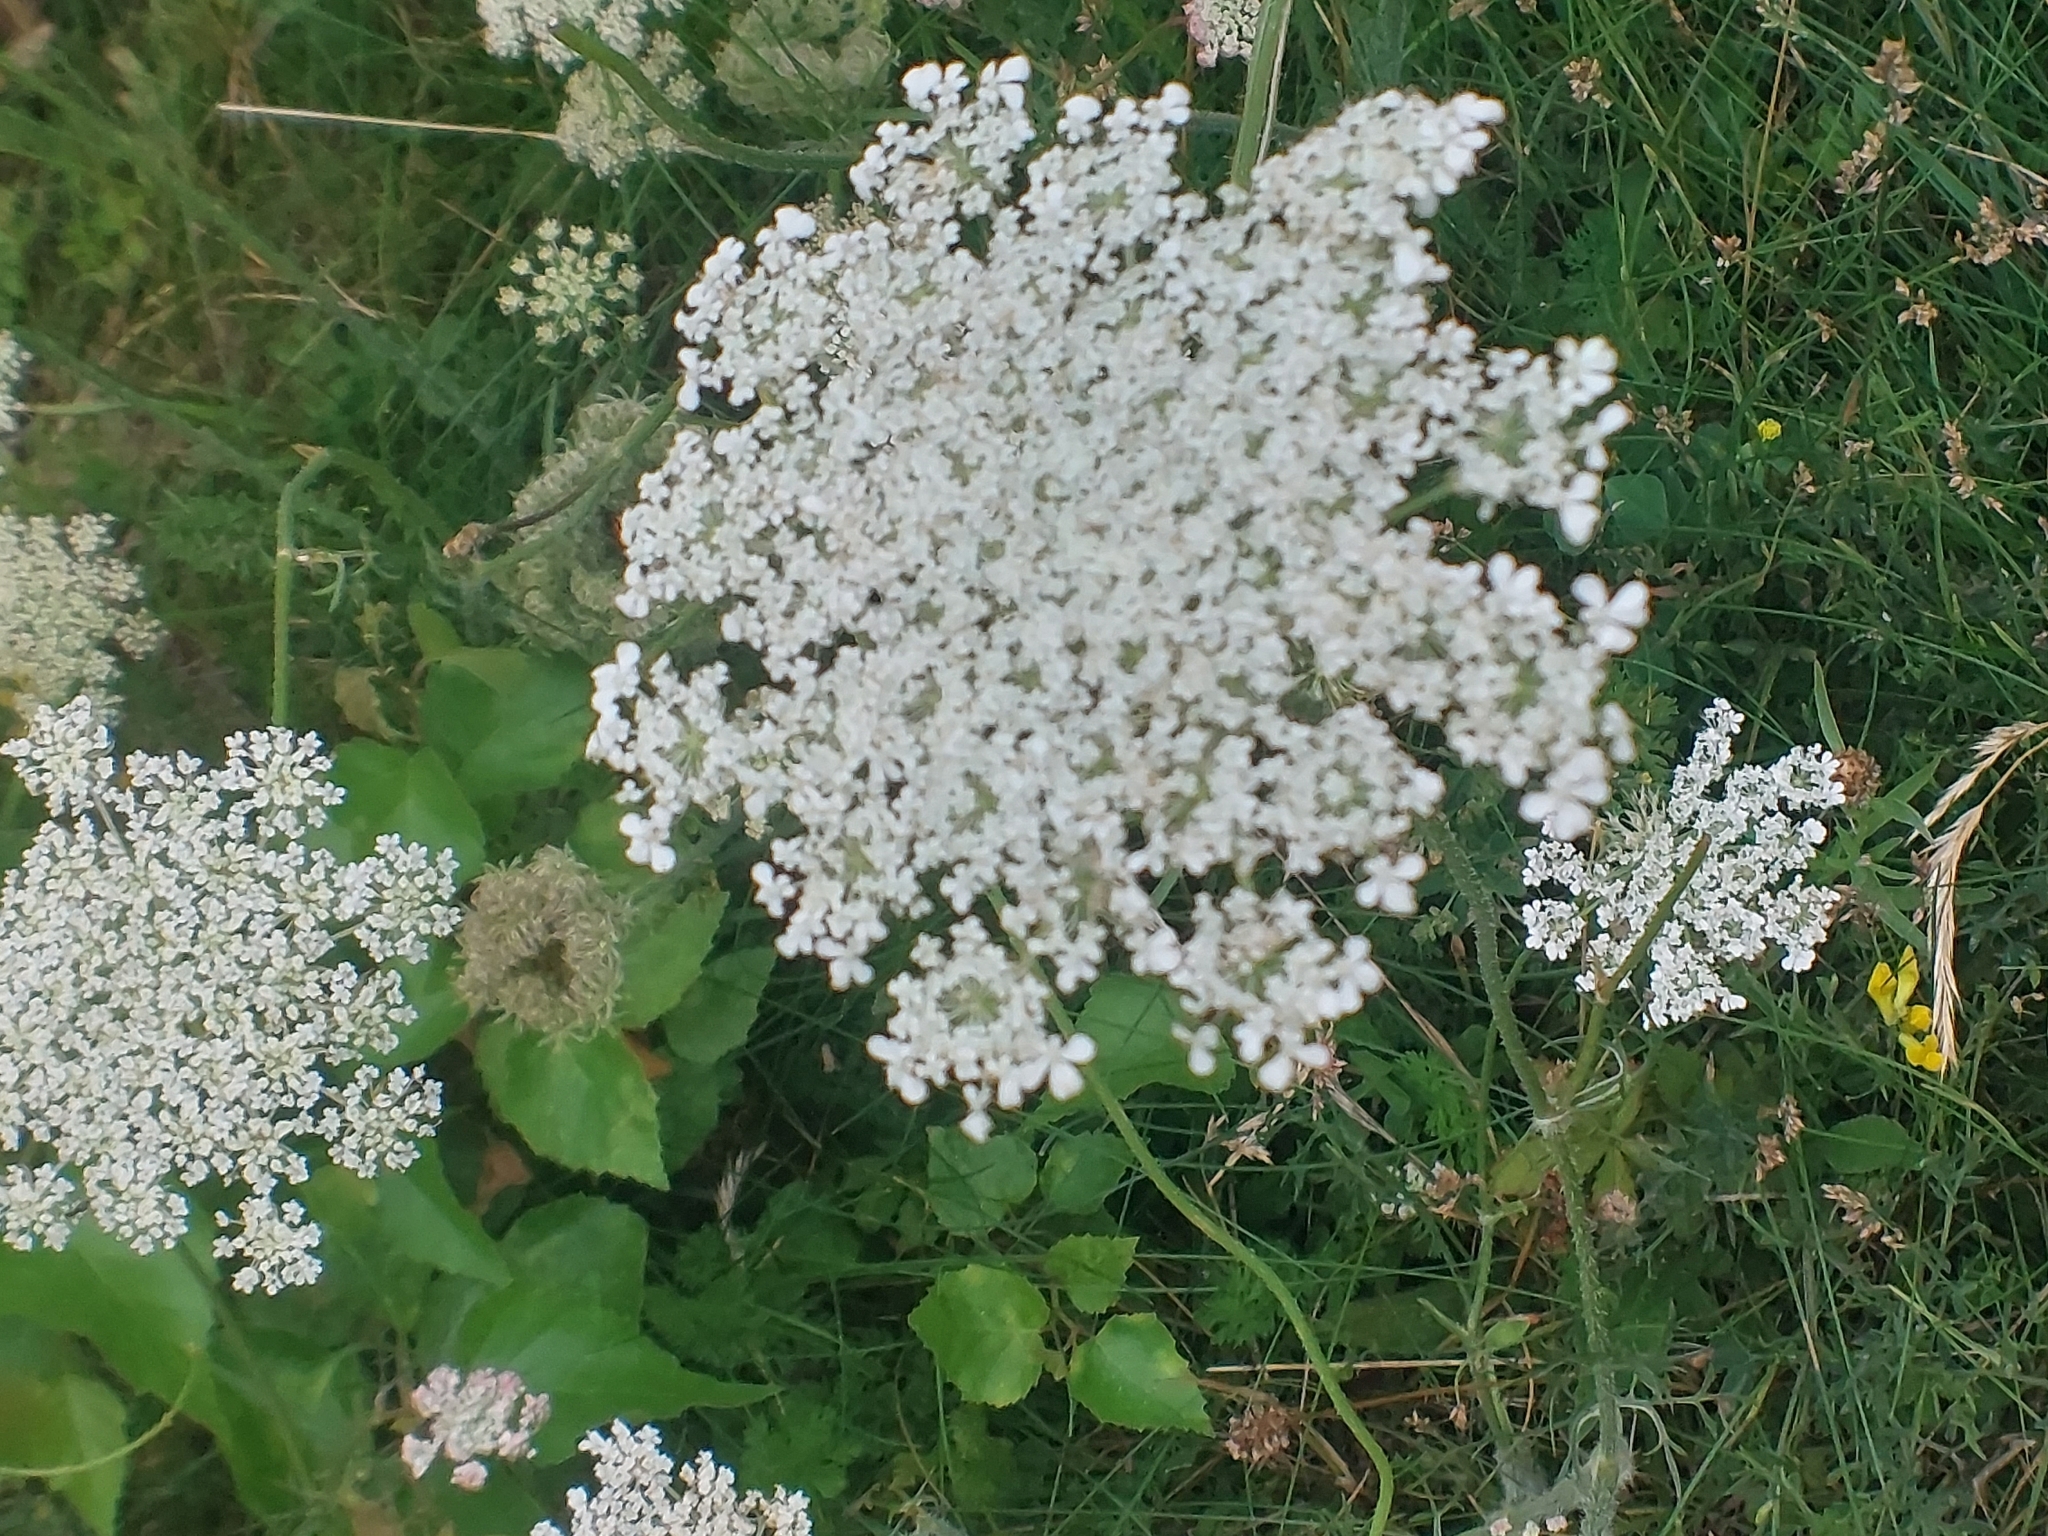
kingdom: Plantae
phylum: Tracheophyta
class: Magnoliopsida
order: Apiales
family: Apiaceae
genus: Daucus
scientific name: Daucus carota
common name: Wild carrot
